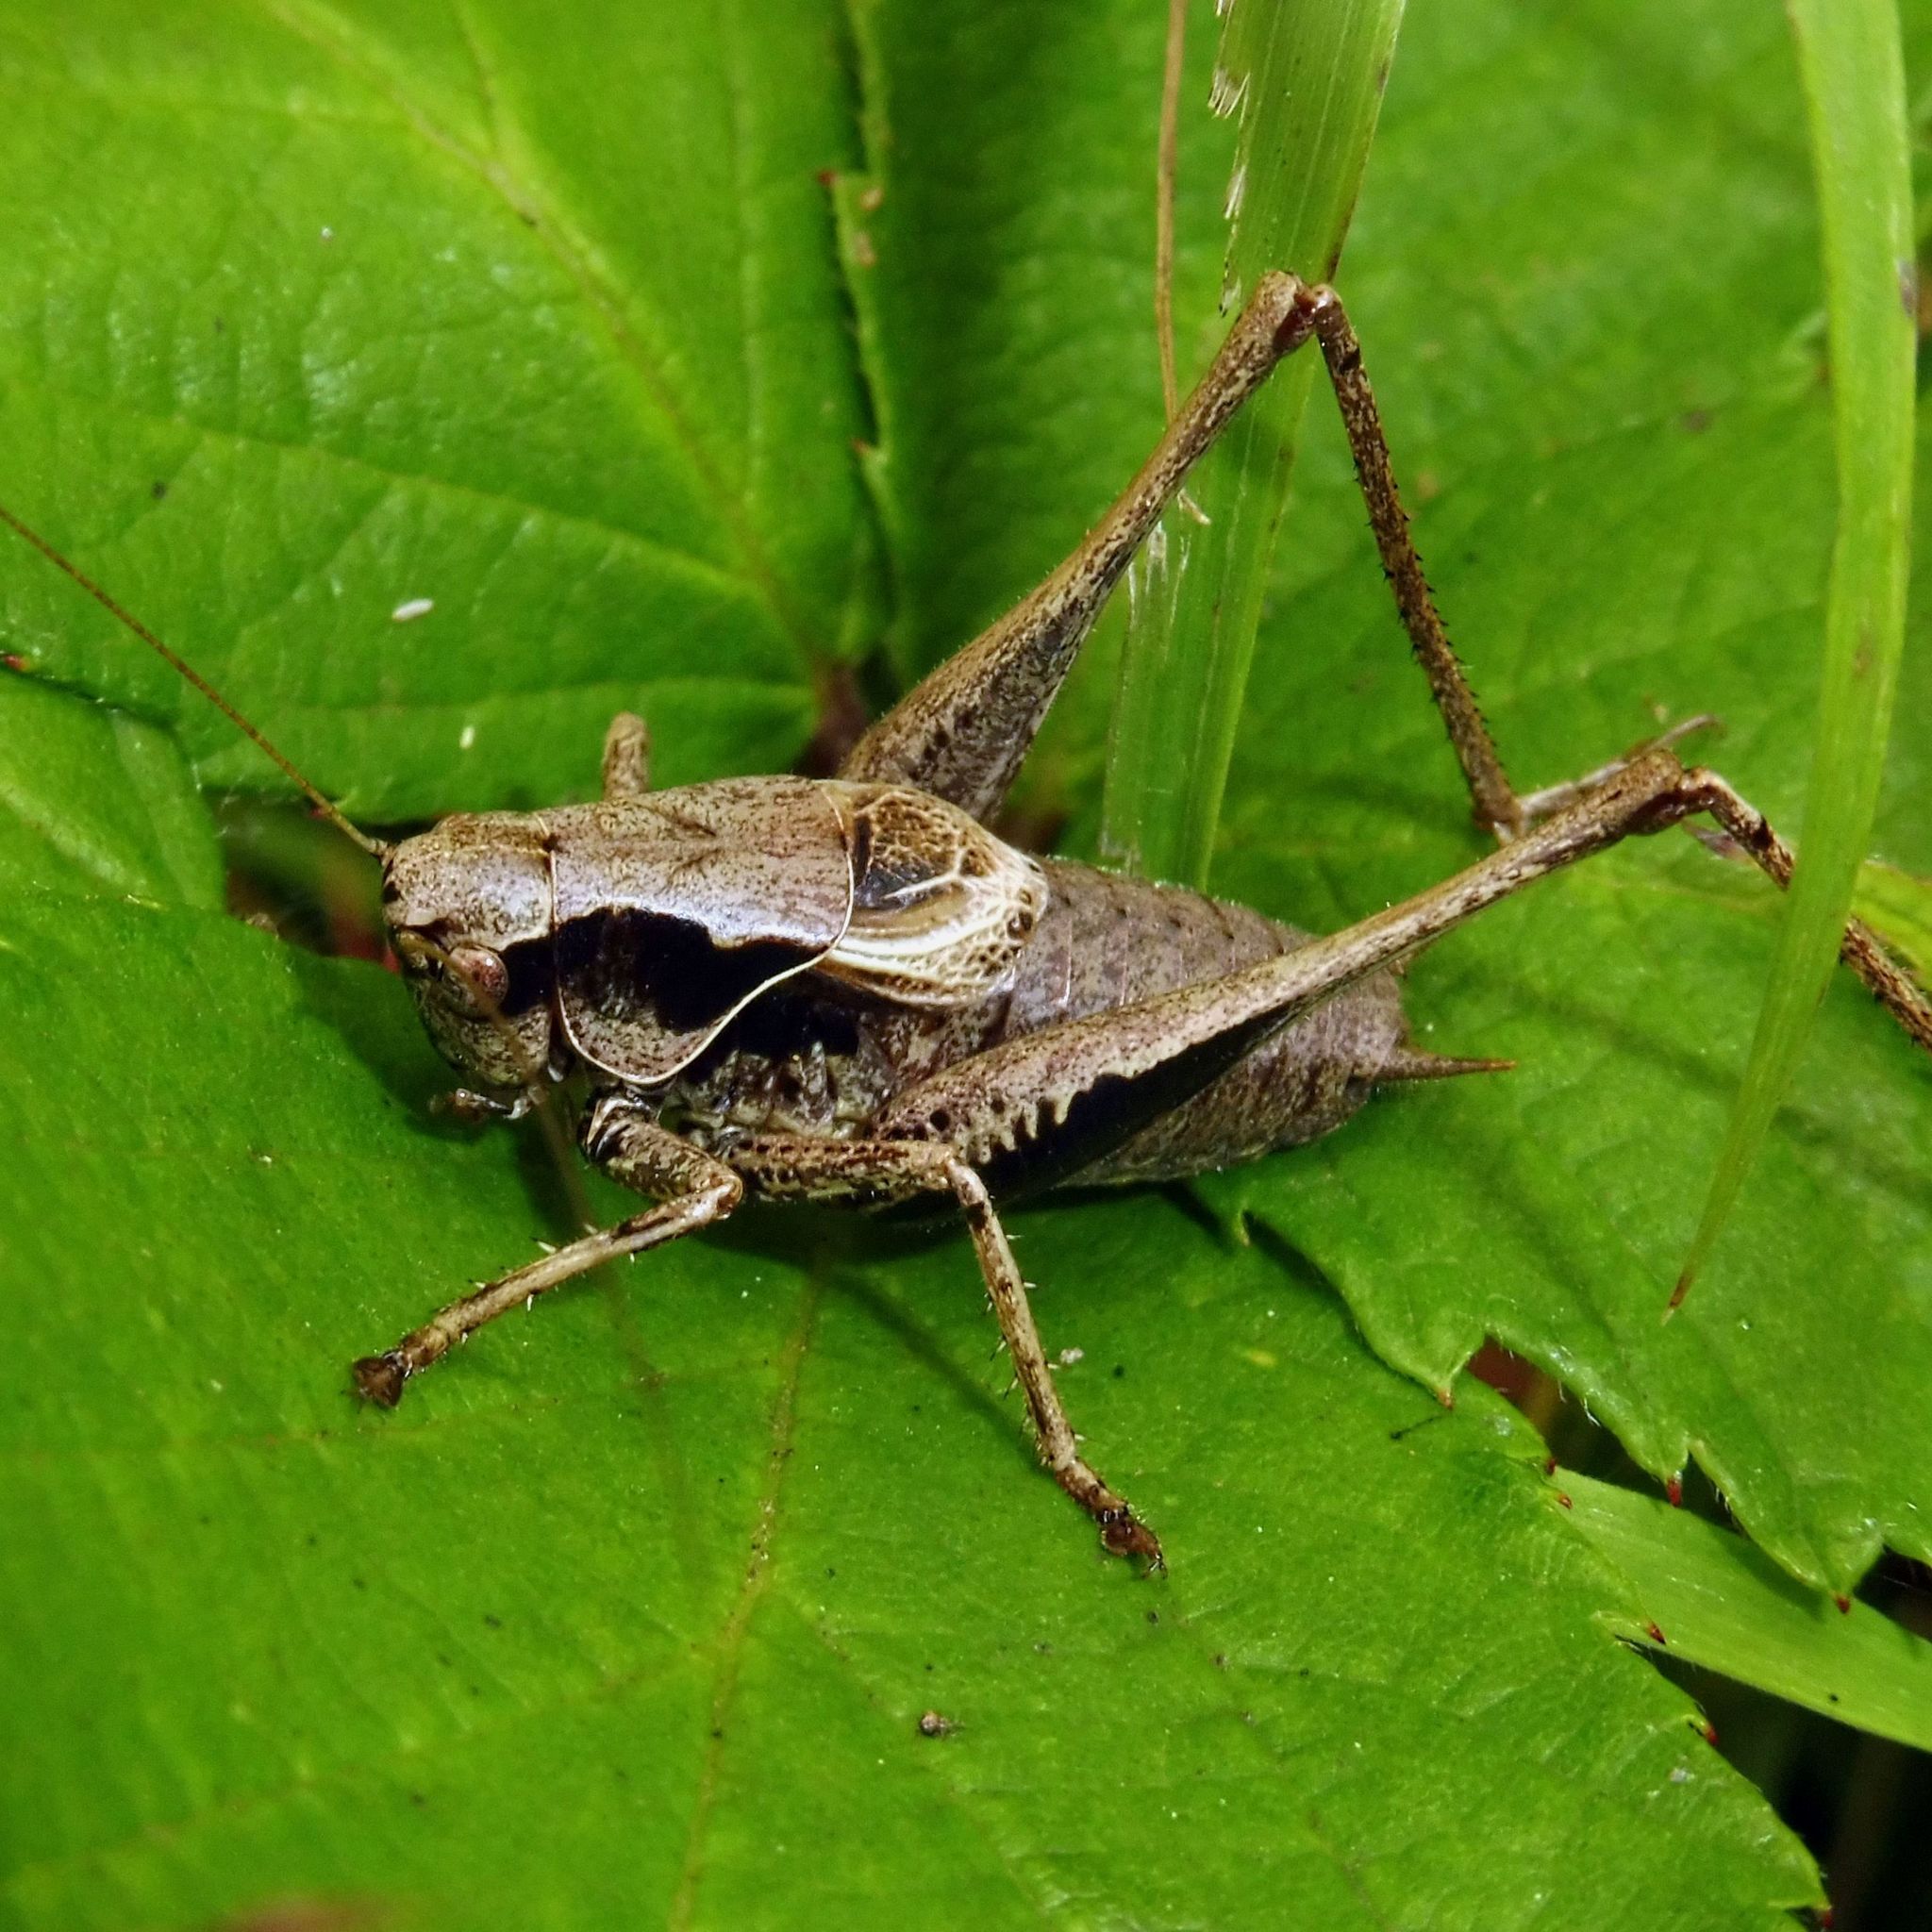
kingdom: Animalia
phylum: Arthropoda
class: Insecta
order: Orthoptera
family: Tettigoniidae
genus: Pholidoptera
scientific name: Pholidoptera griseoaptera
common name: Dark bush-cricket
